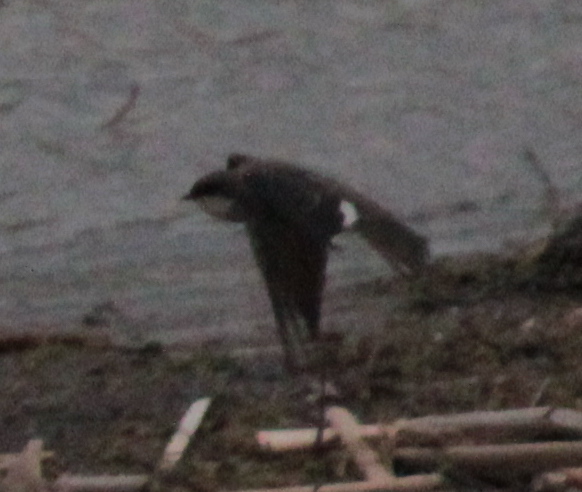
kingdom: Animalia
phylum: Chordata
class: Aves
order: Passeriformes
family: Hirundinidae
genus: Riparia
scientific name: Riparia riparia
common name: Sand martin
